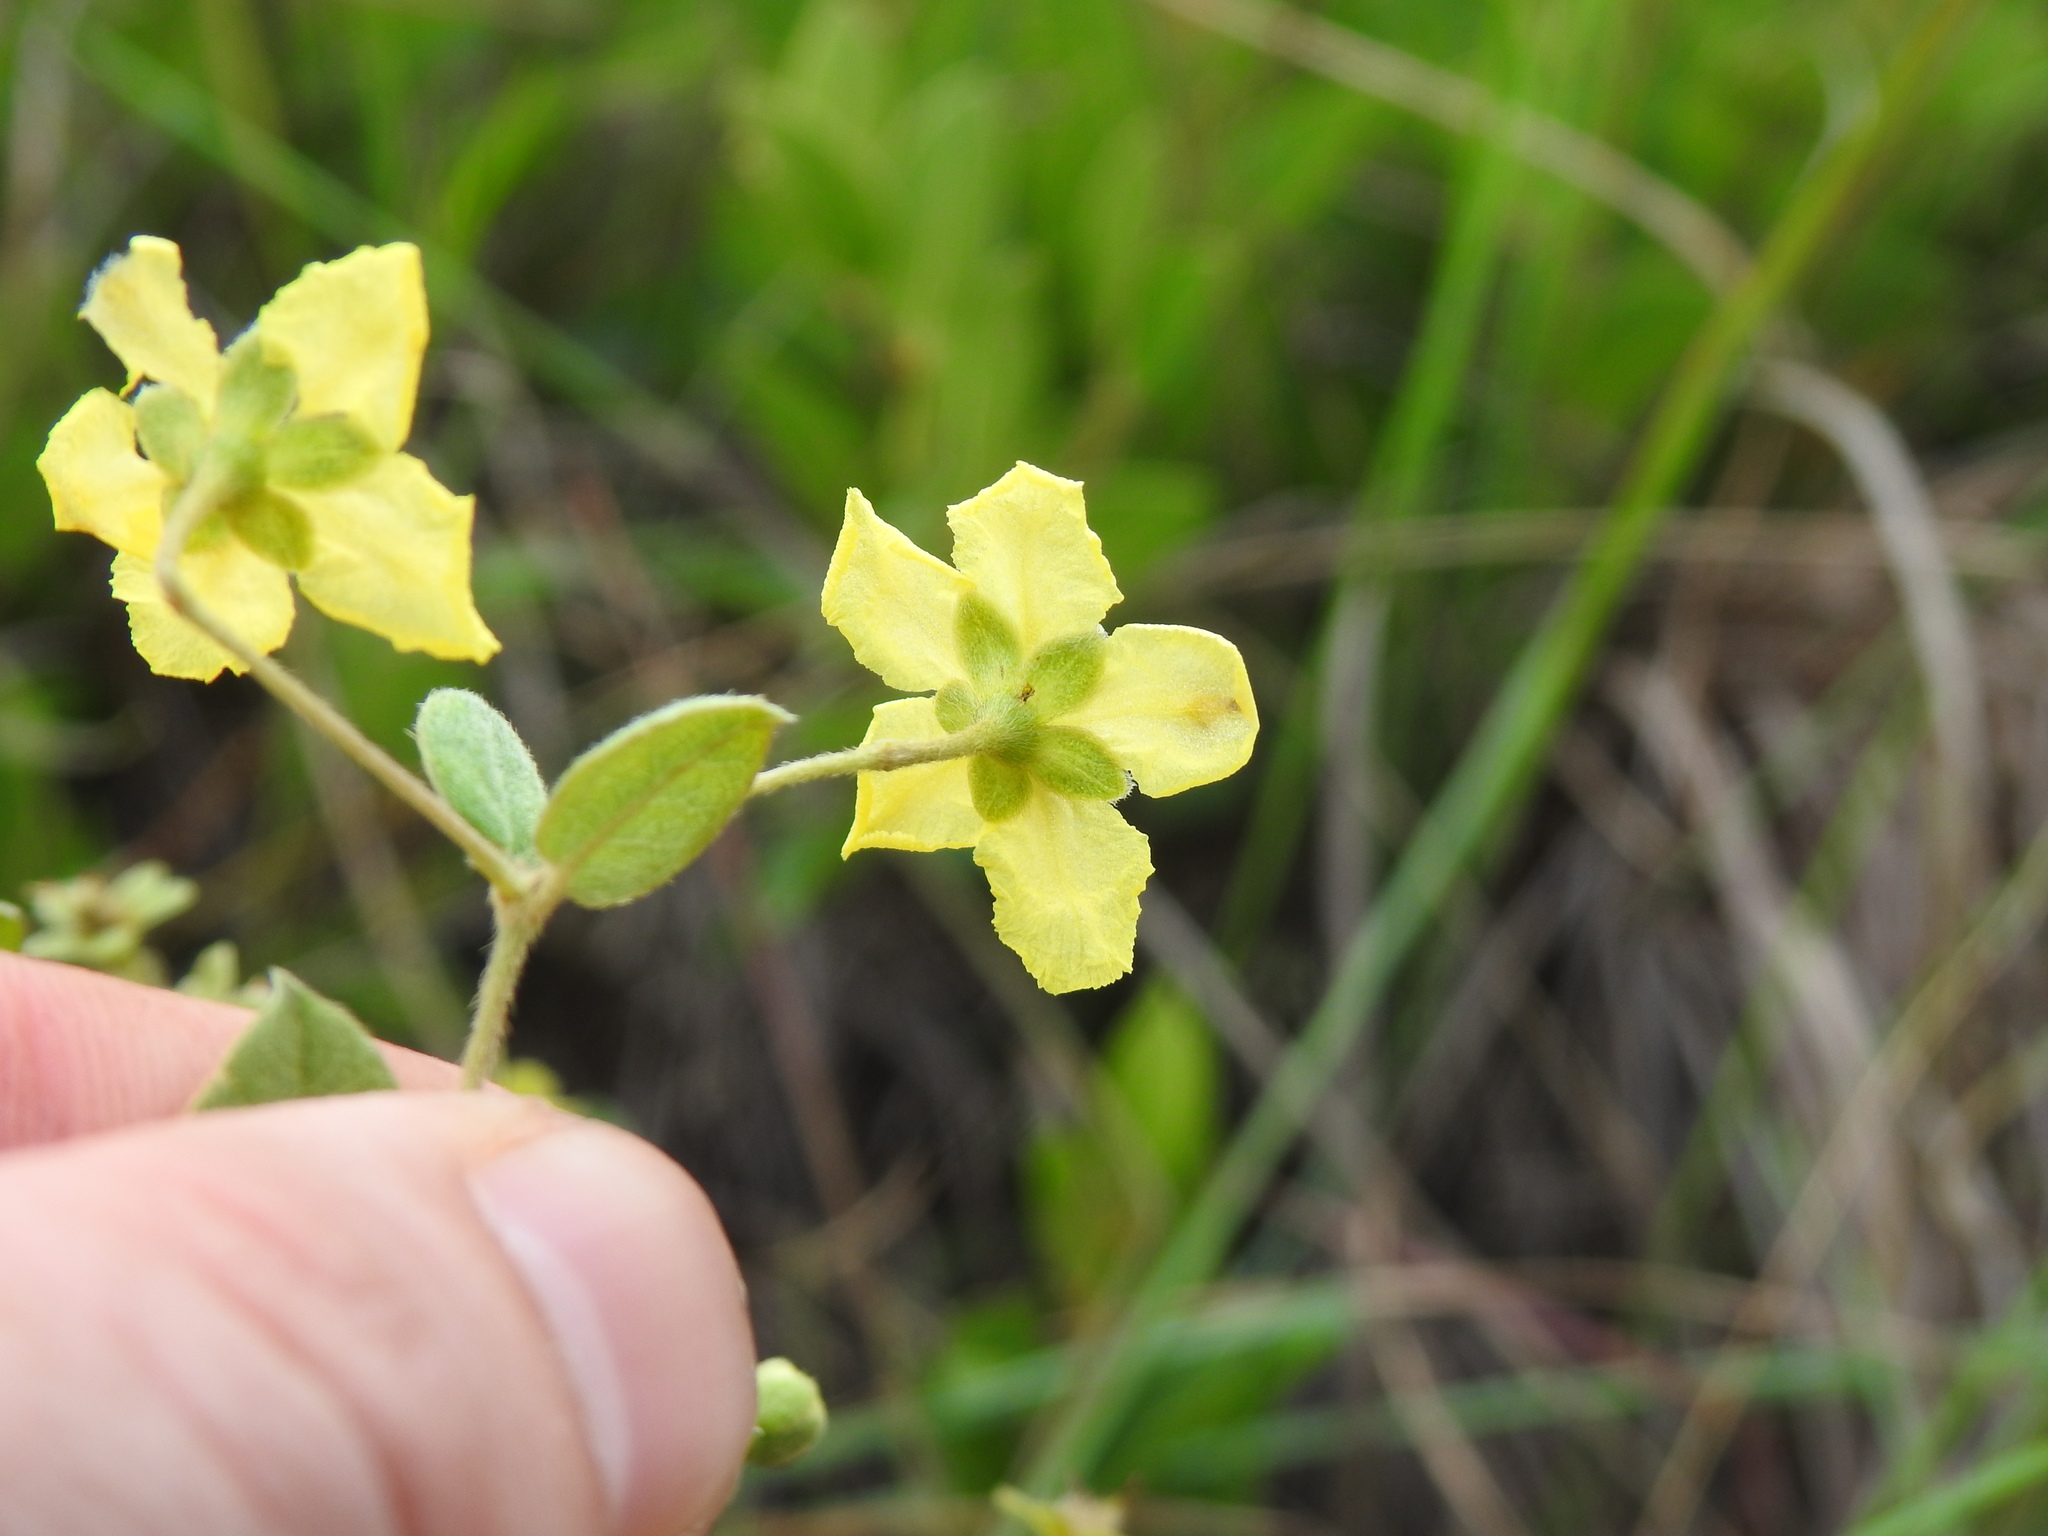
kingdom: Plantae
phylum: Tracheophyta
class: Magnoliopsida
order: Malpighiales
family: Malpighiaceae
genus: Sphedamnocarpus
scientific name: Sphedamnocarpus galphimiifolius
